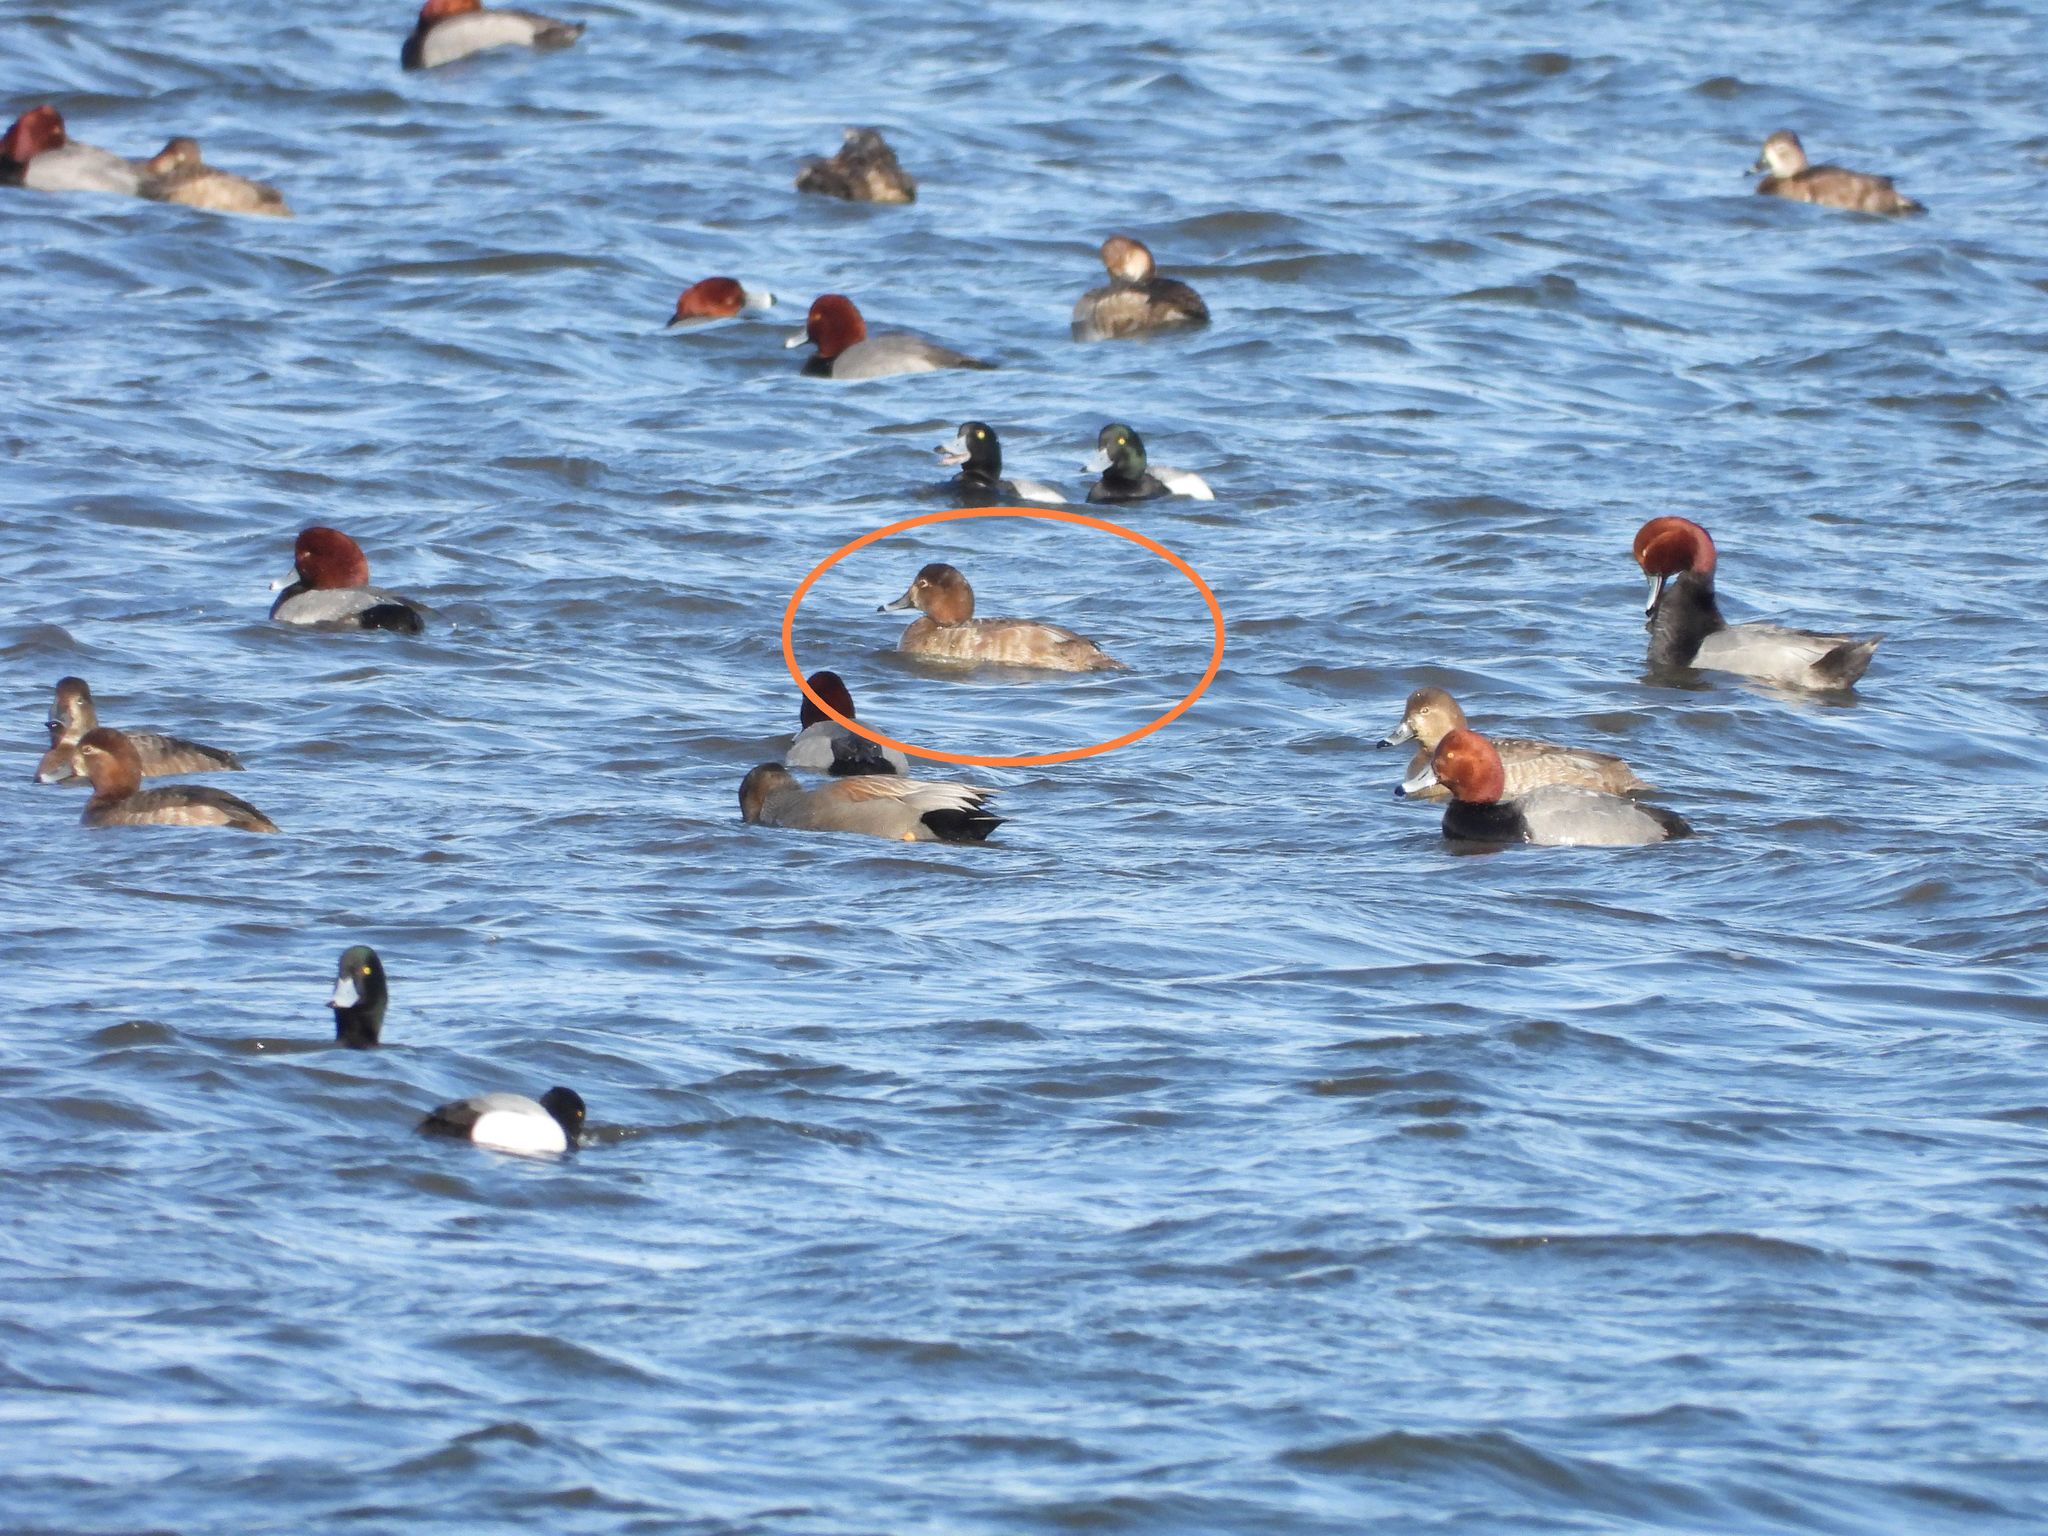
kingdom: Animalia
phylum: Chordata
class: Aves
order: Anseriformes
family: Anatidae
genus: Aythya
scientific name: Aythya americana
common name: Redhead
